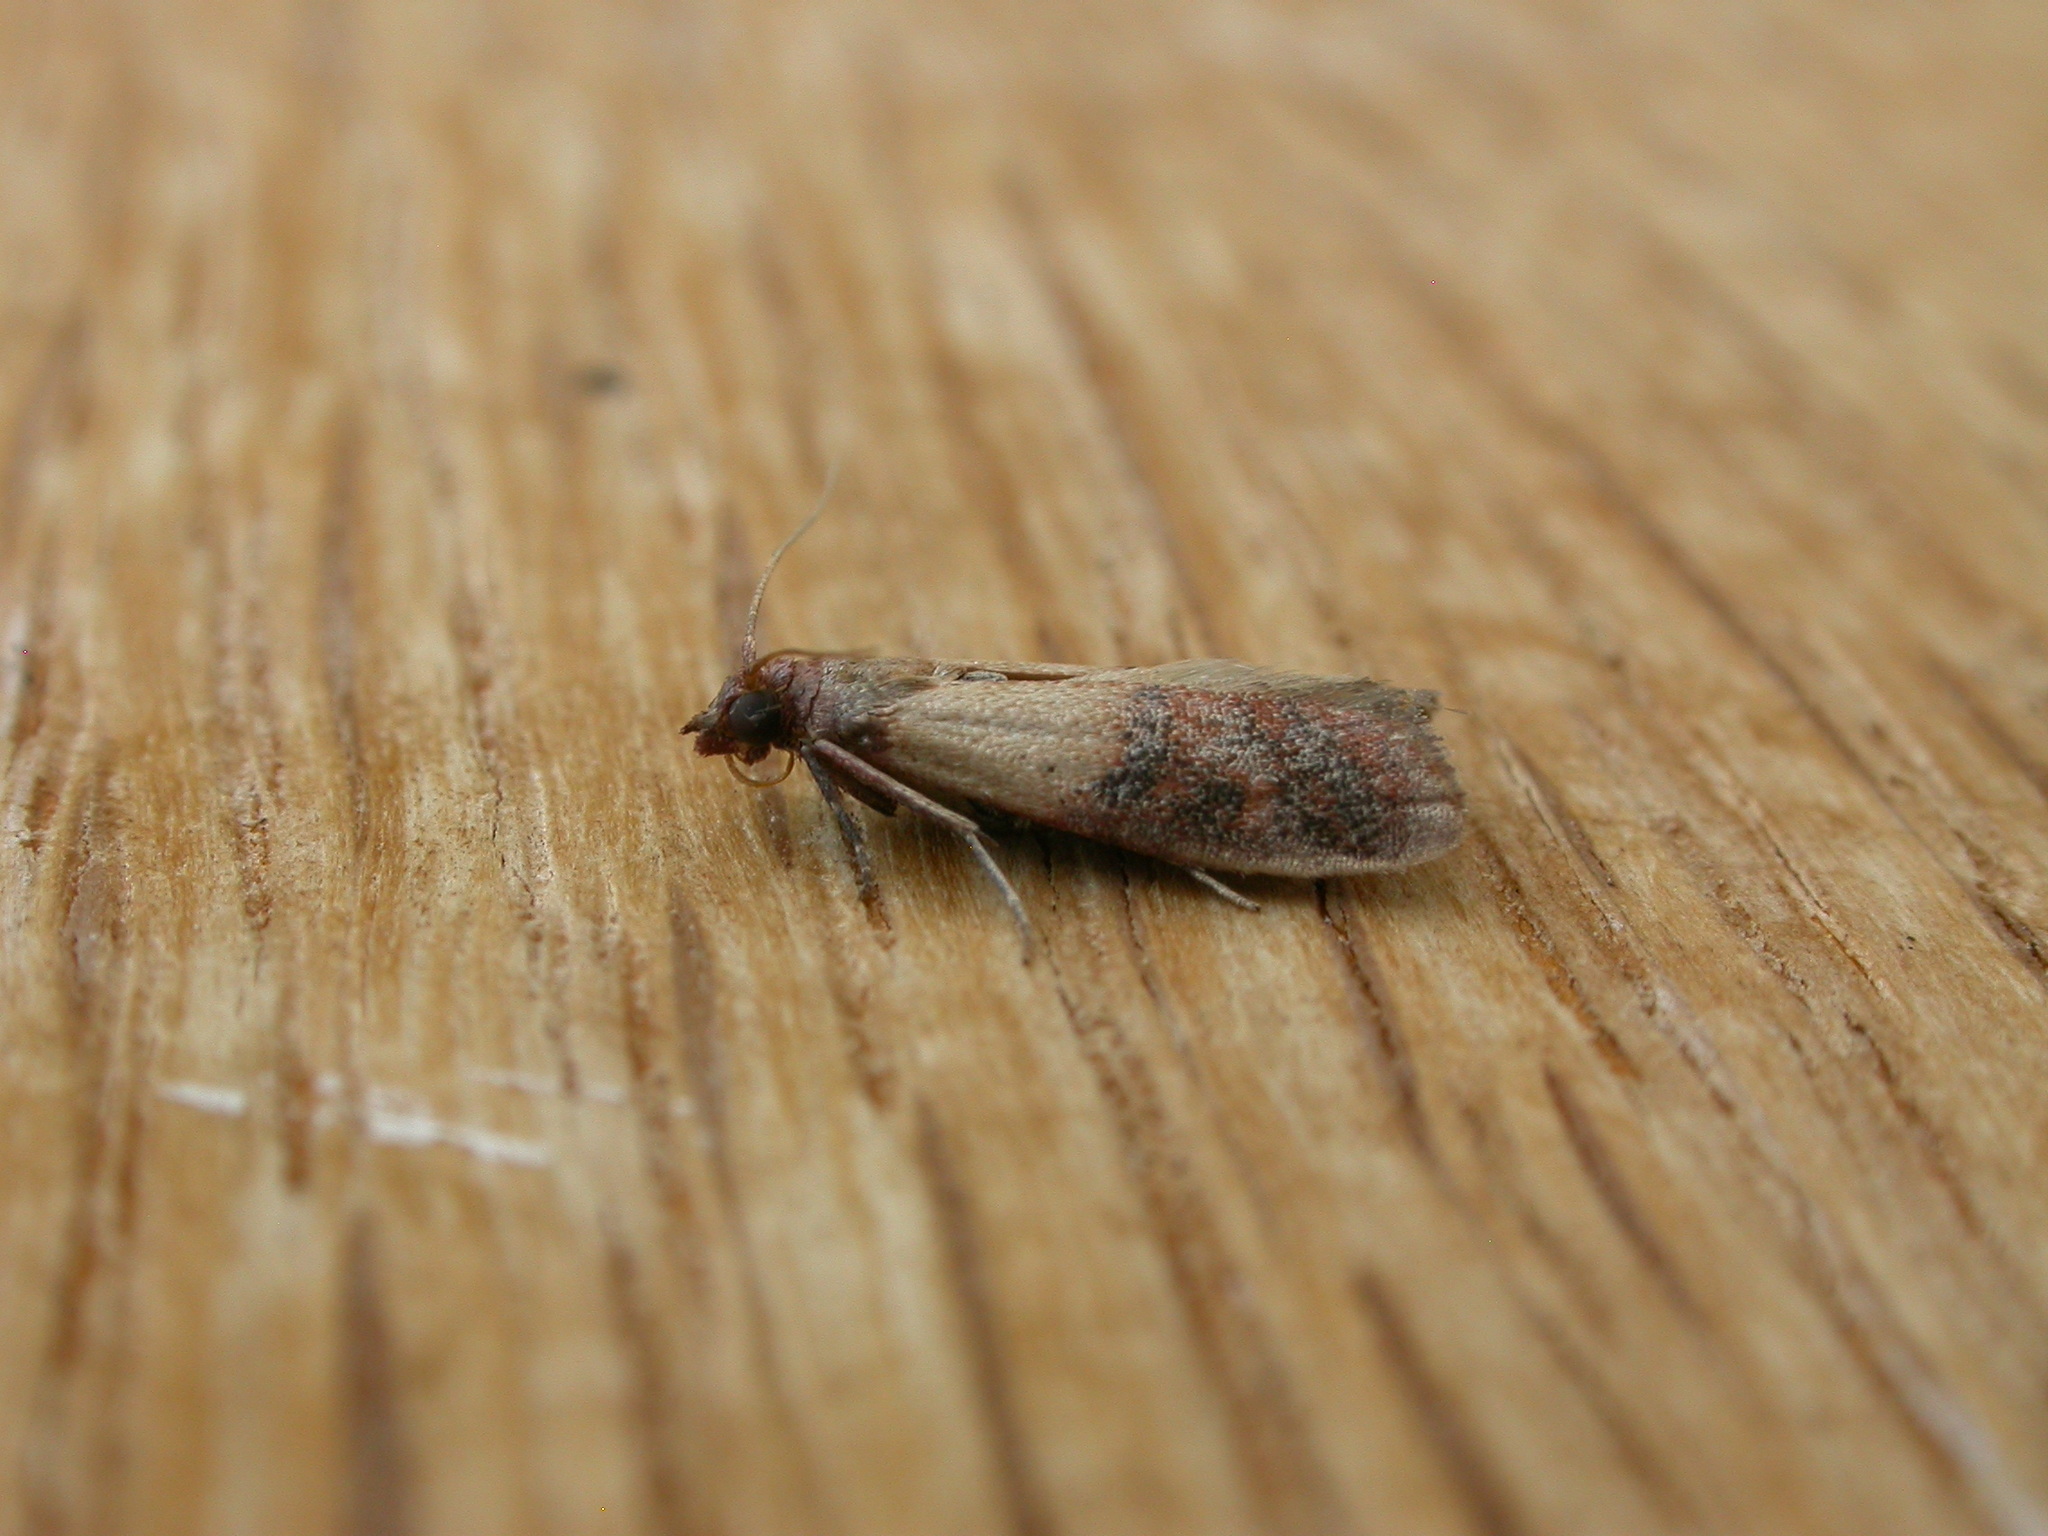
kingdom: Animalia
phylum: Arthropoda
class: Insecta
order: Lepidoptera
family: Pyralidae
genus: Plodia
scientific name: Plodia interpunctella
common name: Indian meal moth
